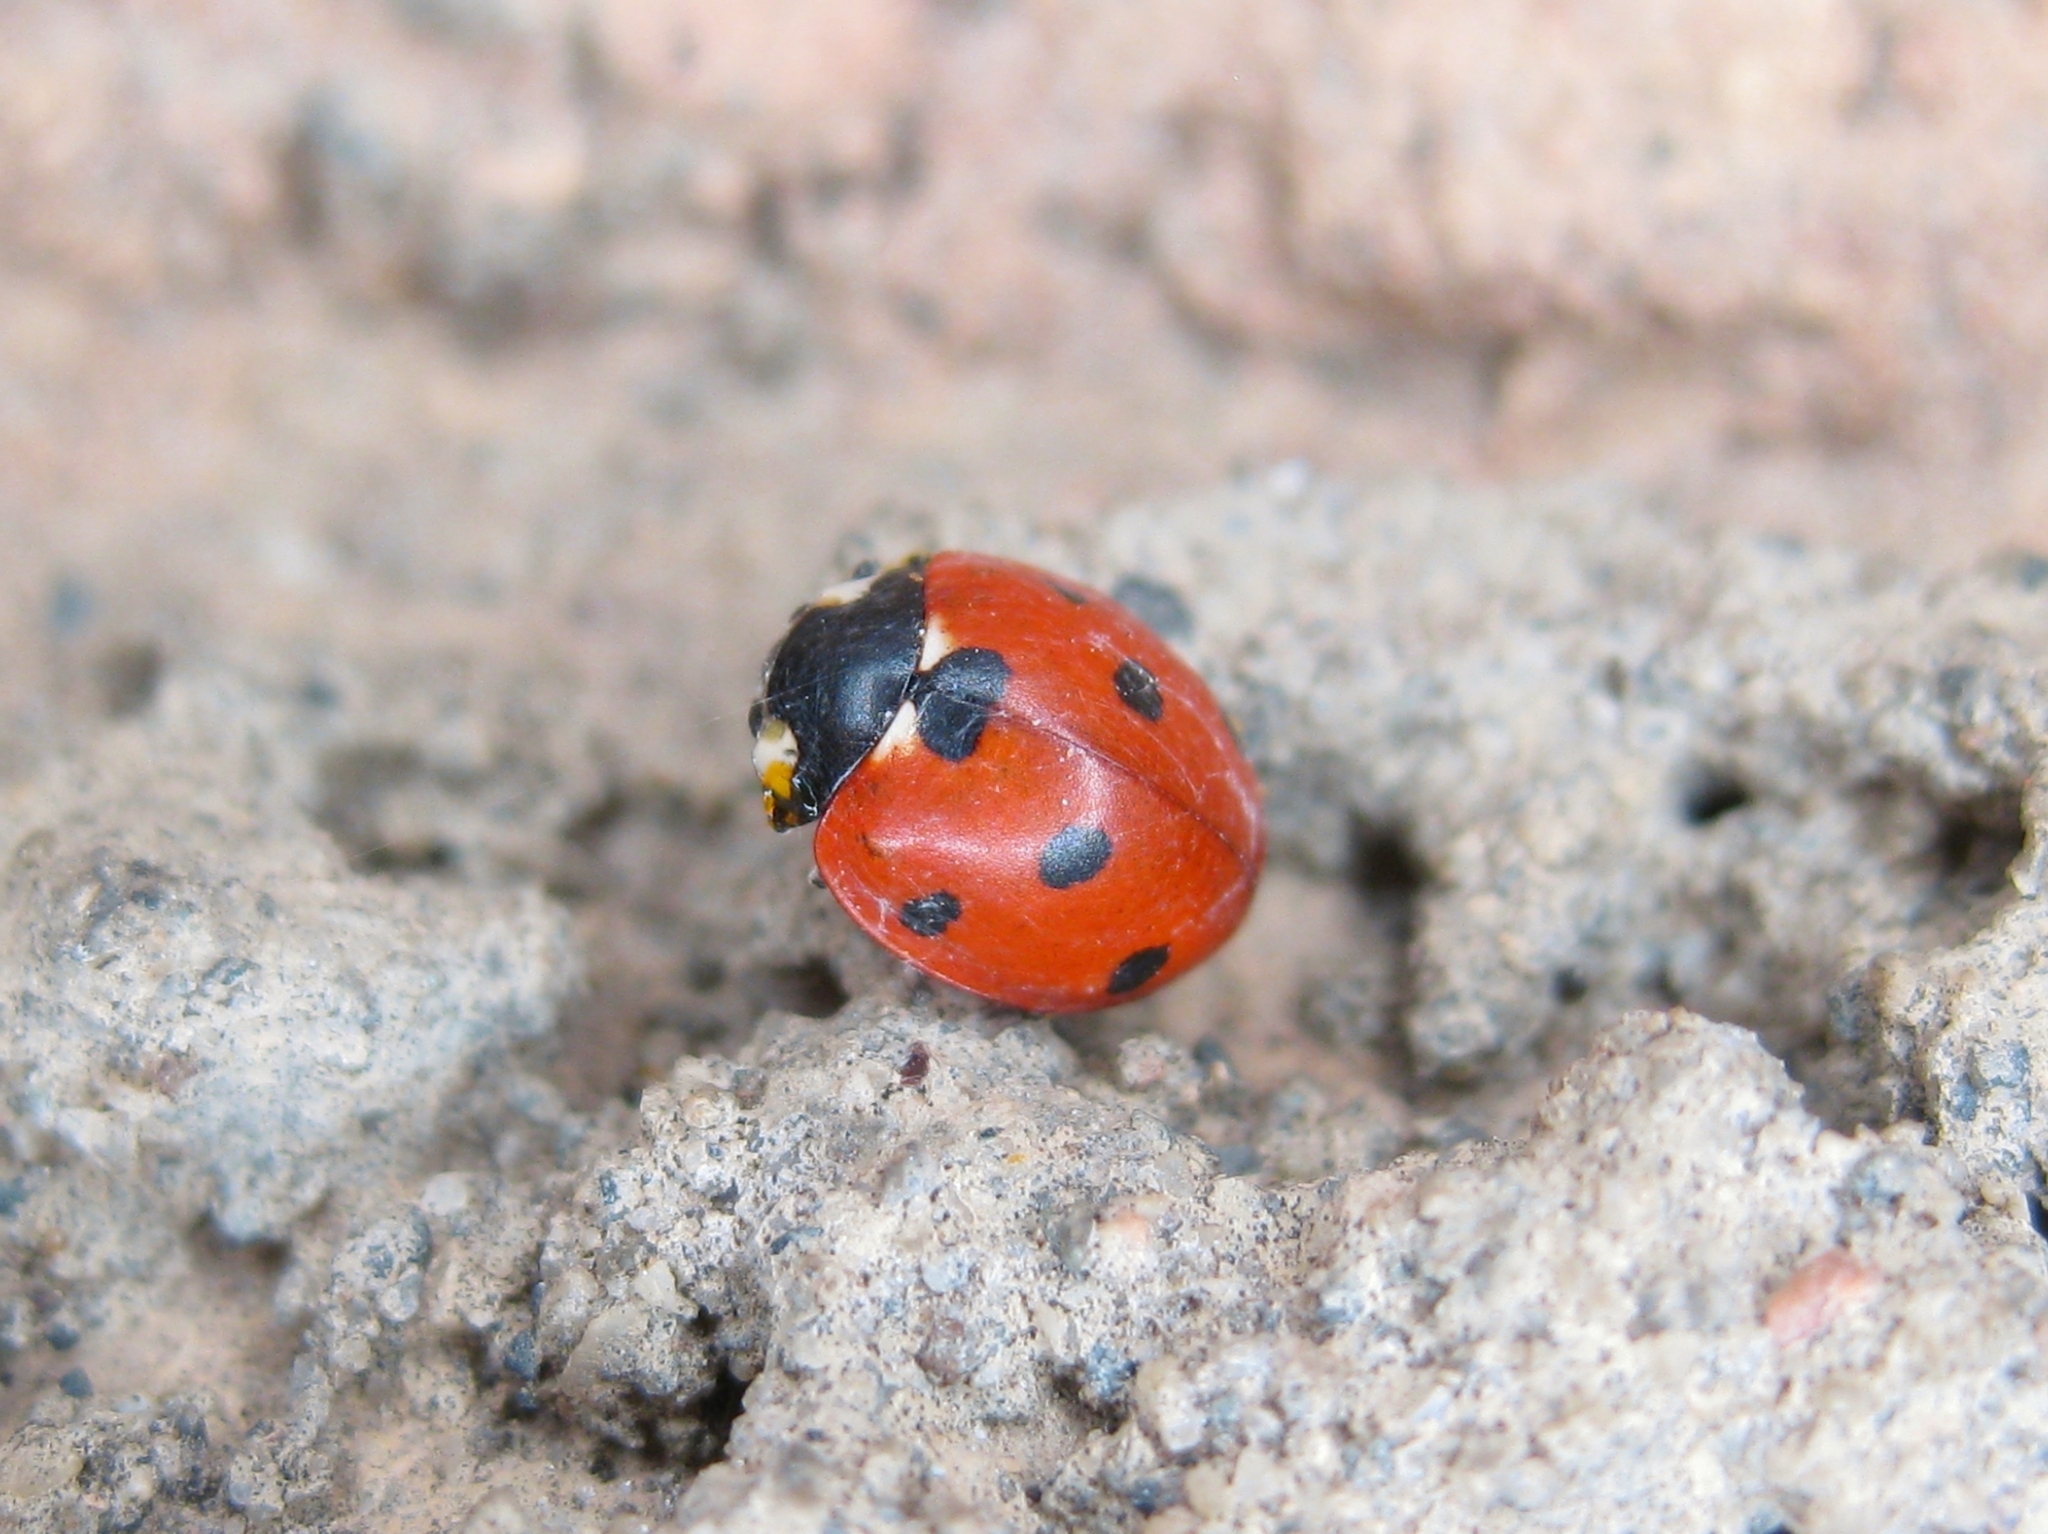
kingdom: Animalia
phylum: Arthropoda
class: Insecta
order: Coleoptera
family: Coccinellidae
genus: Coccinella
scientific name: Coccinella septempunctata
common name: Sevenspotted lady beetle
